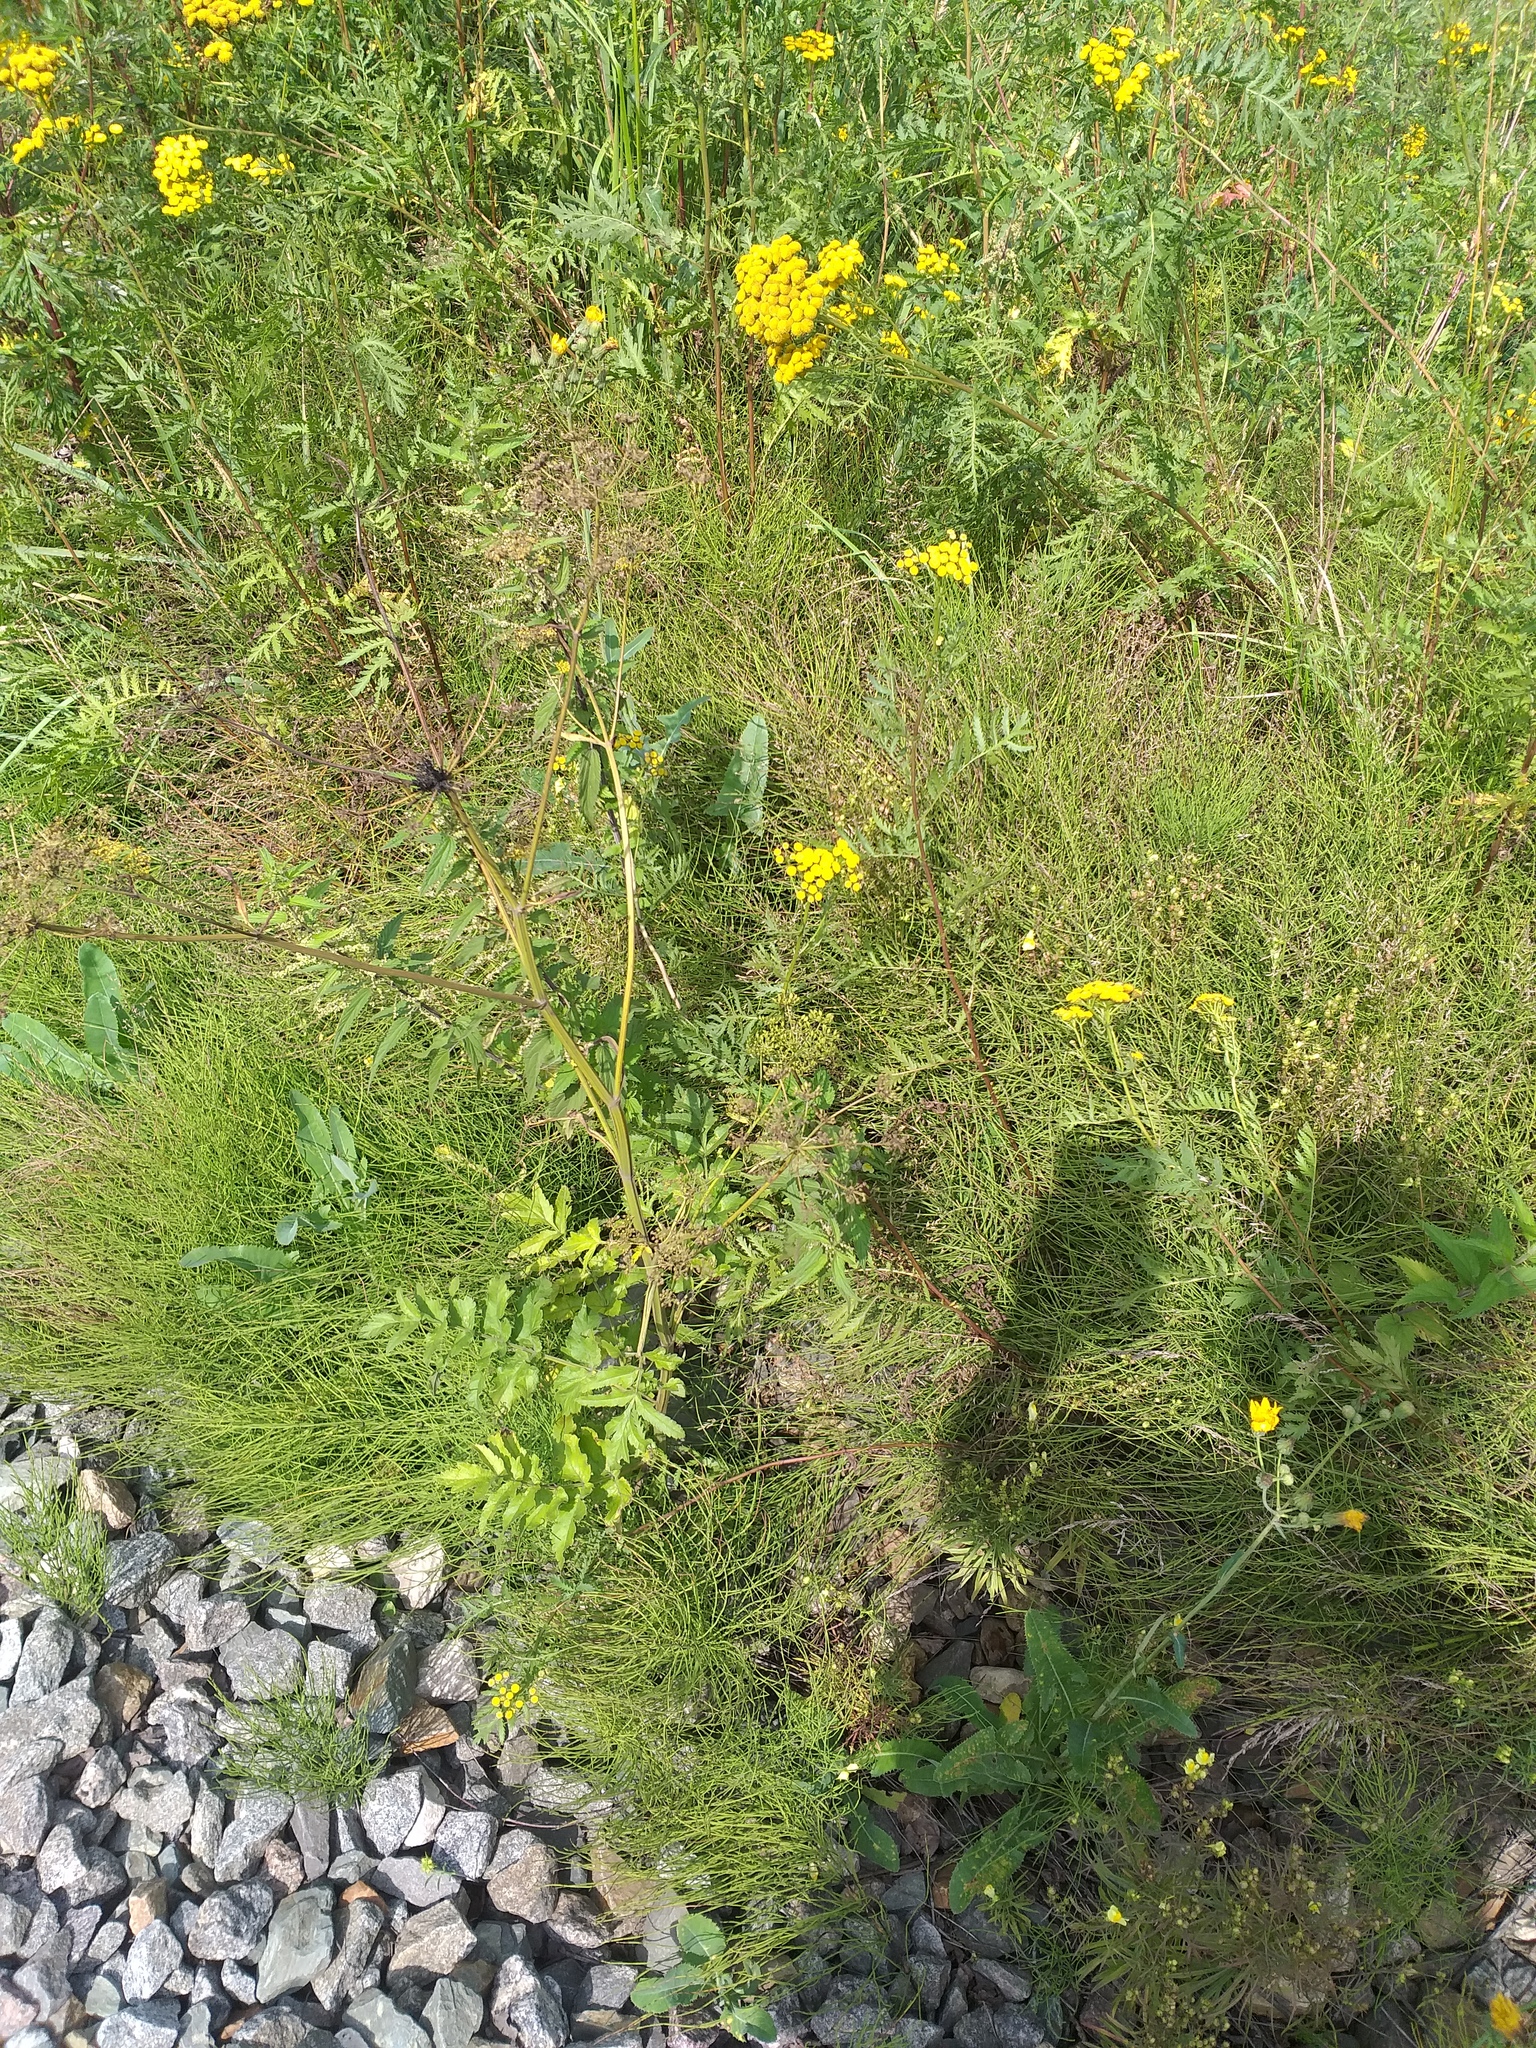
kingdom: Plantae
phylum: Tracheophyta
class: Magnoliopsida
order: Apiales
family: Apiaceae
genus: Pastinaca
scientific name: Pastinaca sativa
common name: Wild parsnip
